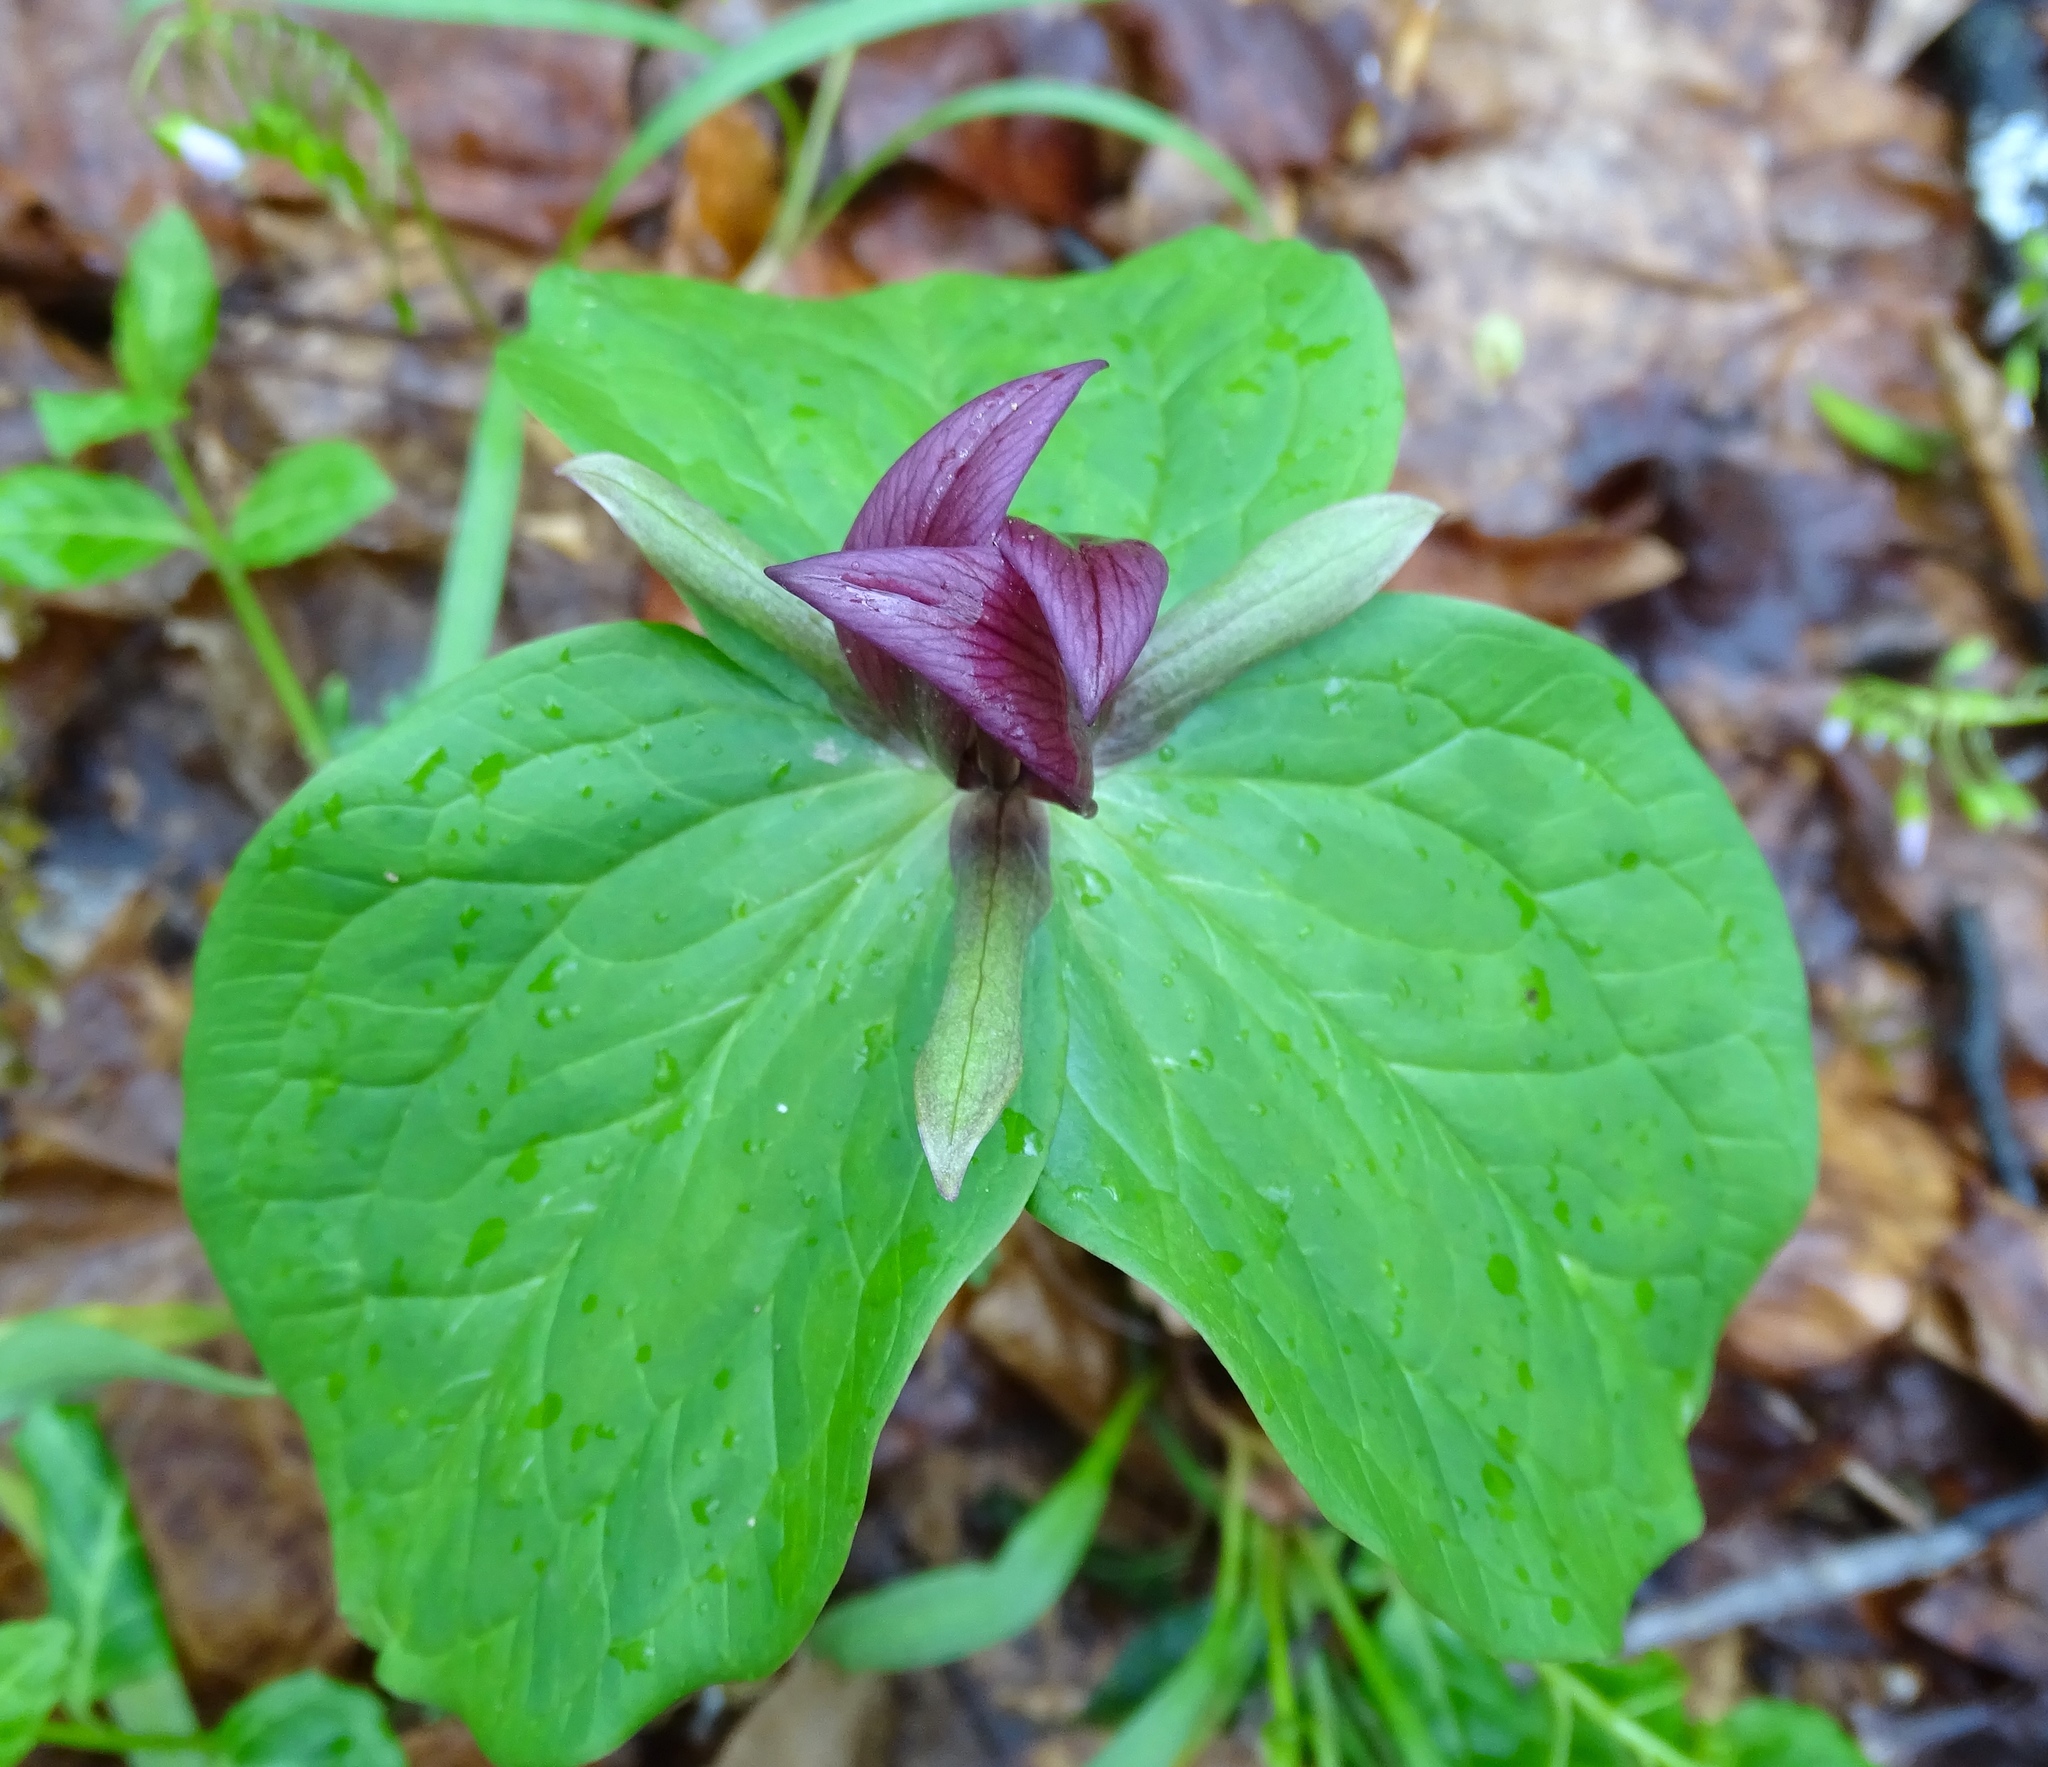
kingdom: Plantae
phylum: Tracheophyta
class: Liliopsida
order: Liliales
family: Melanthiaceae
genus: Trillium
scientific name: Trillium sessile
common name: Sessile trillium
